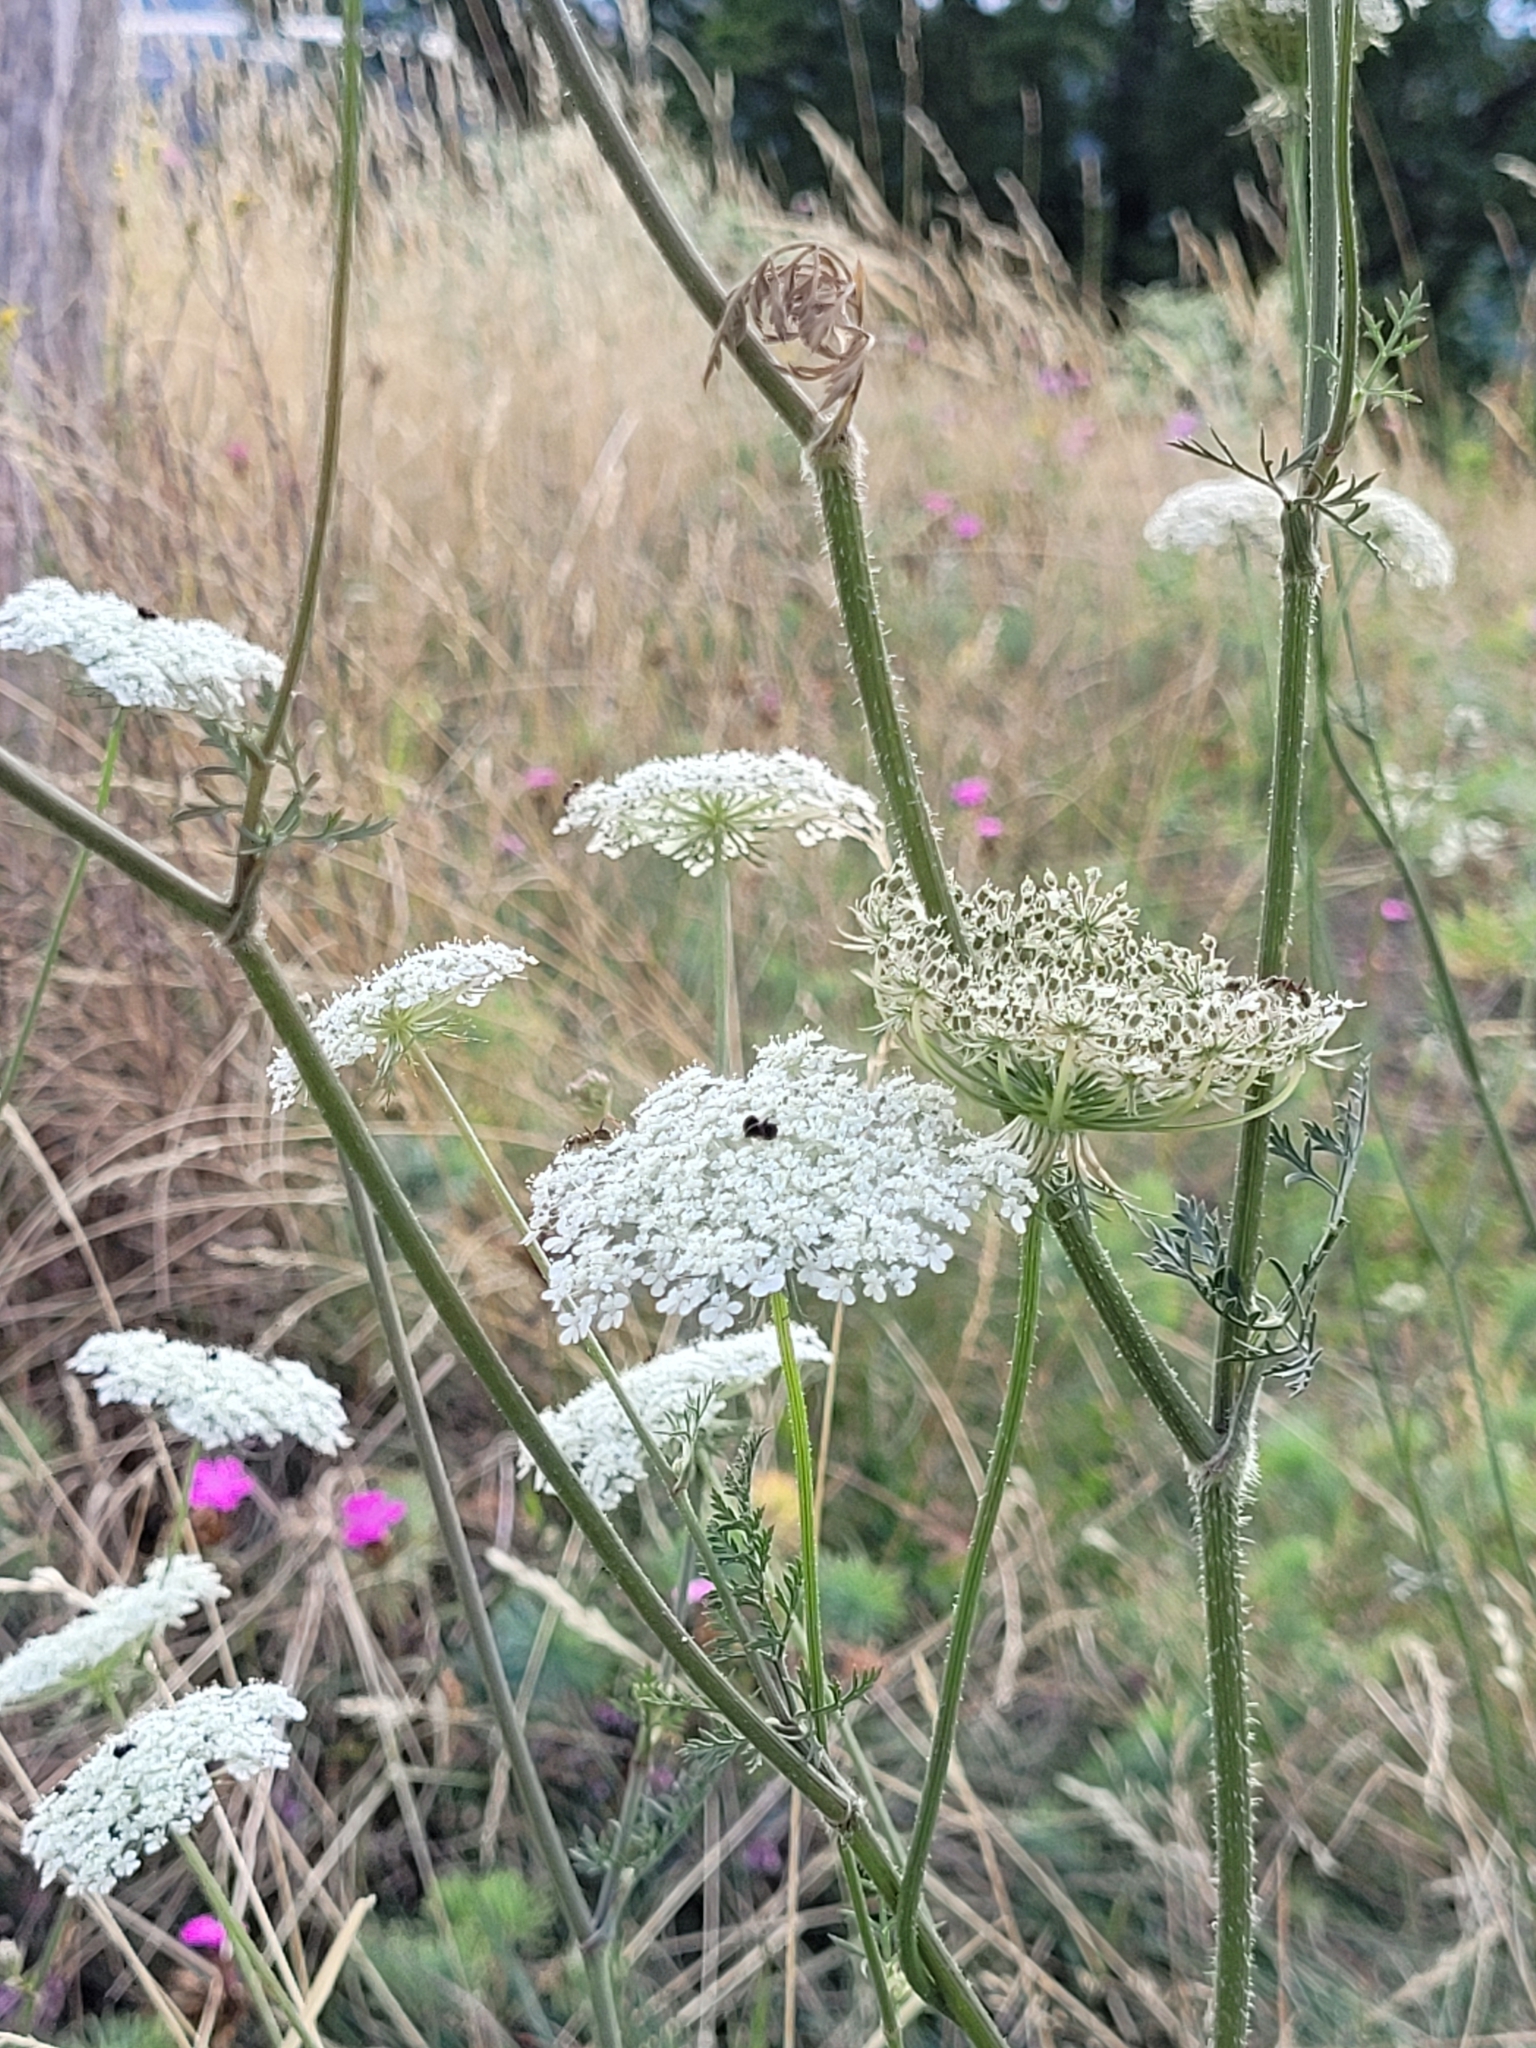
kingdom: Plantae
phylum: Tracheophyta
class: Magnoliopsida
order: Apiales
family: Apiaceae
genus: Daucus
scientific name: Daucus carota
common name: Wild carrot
